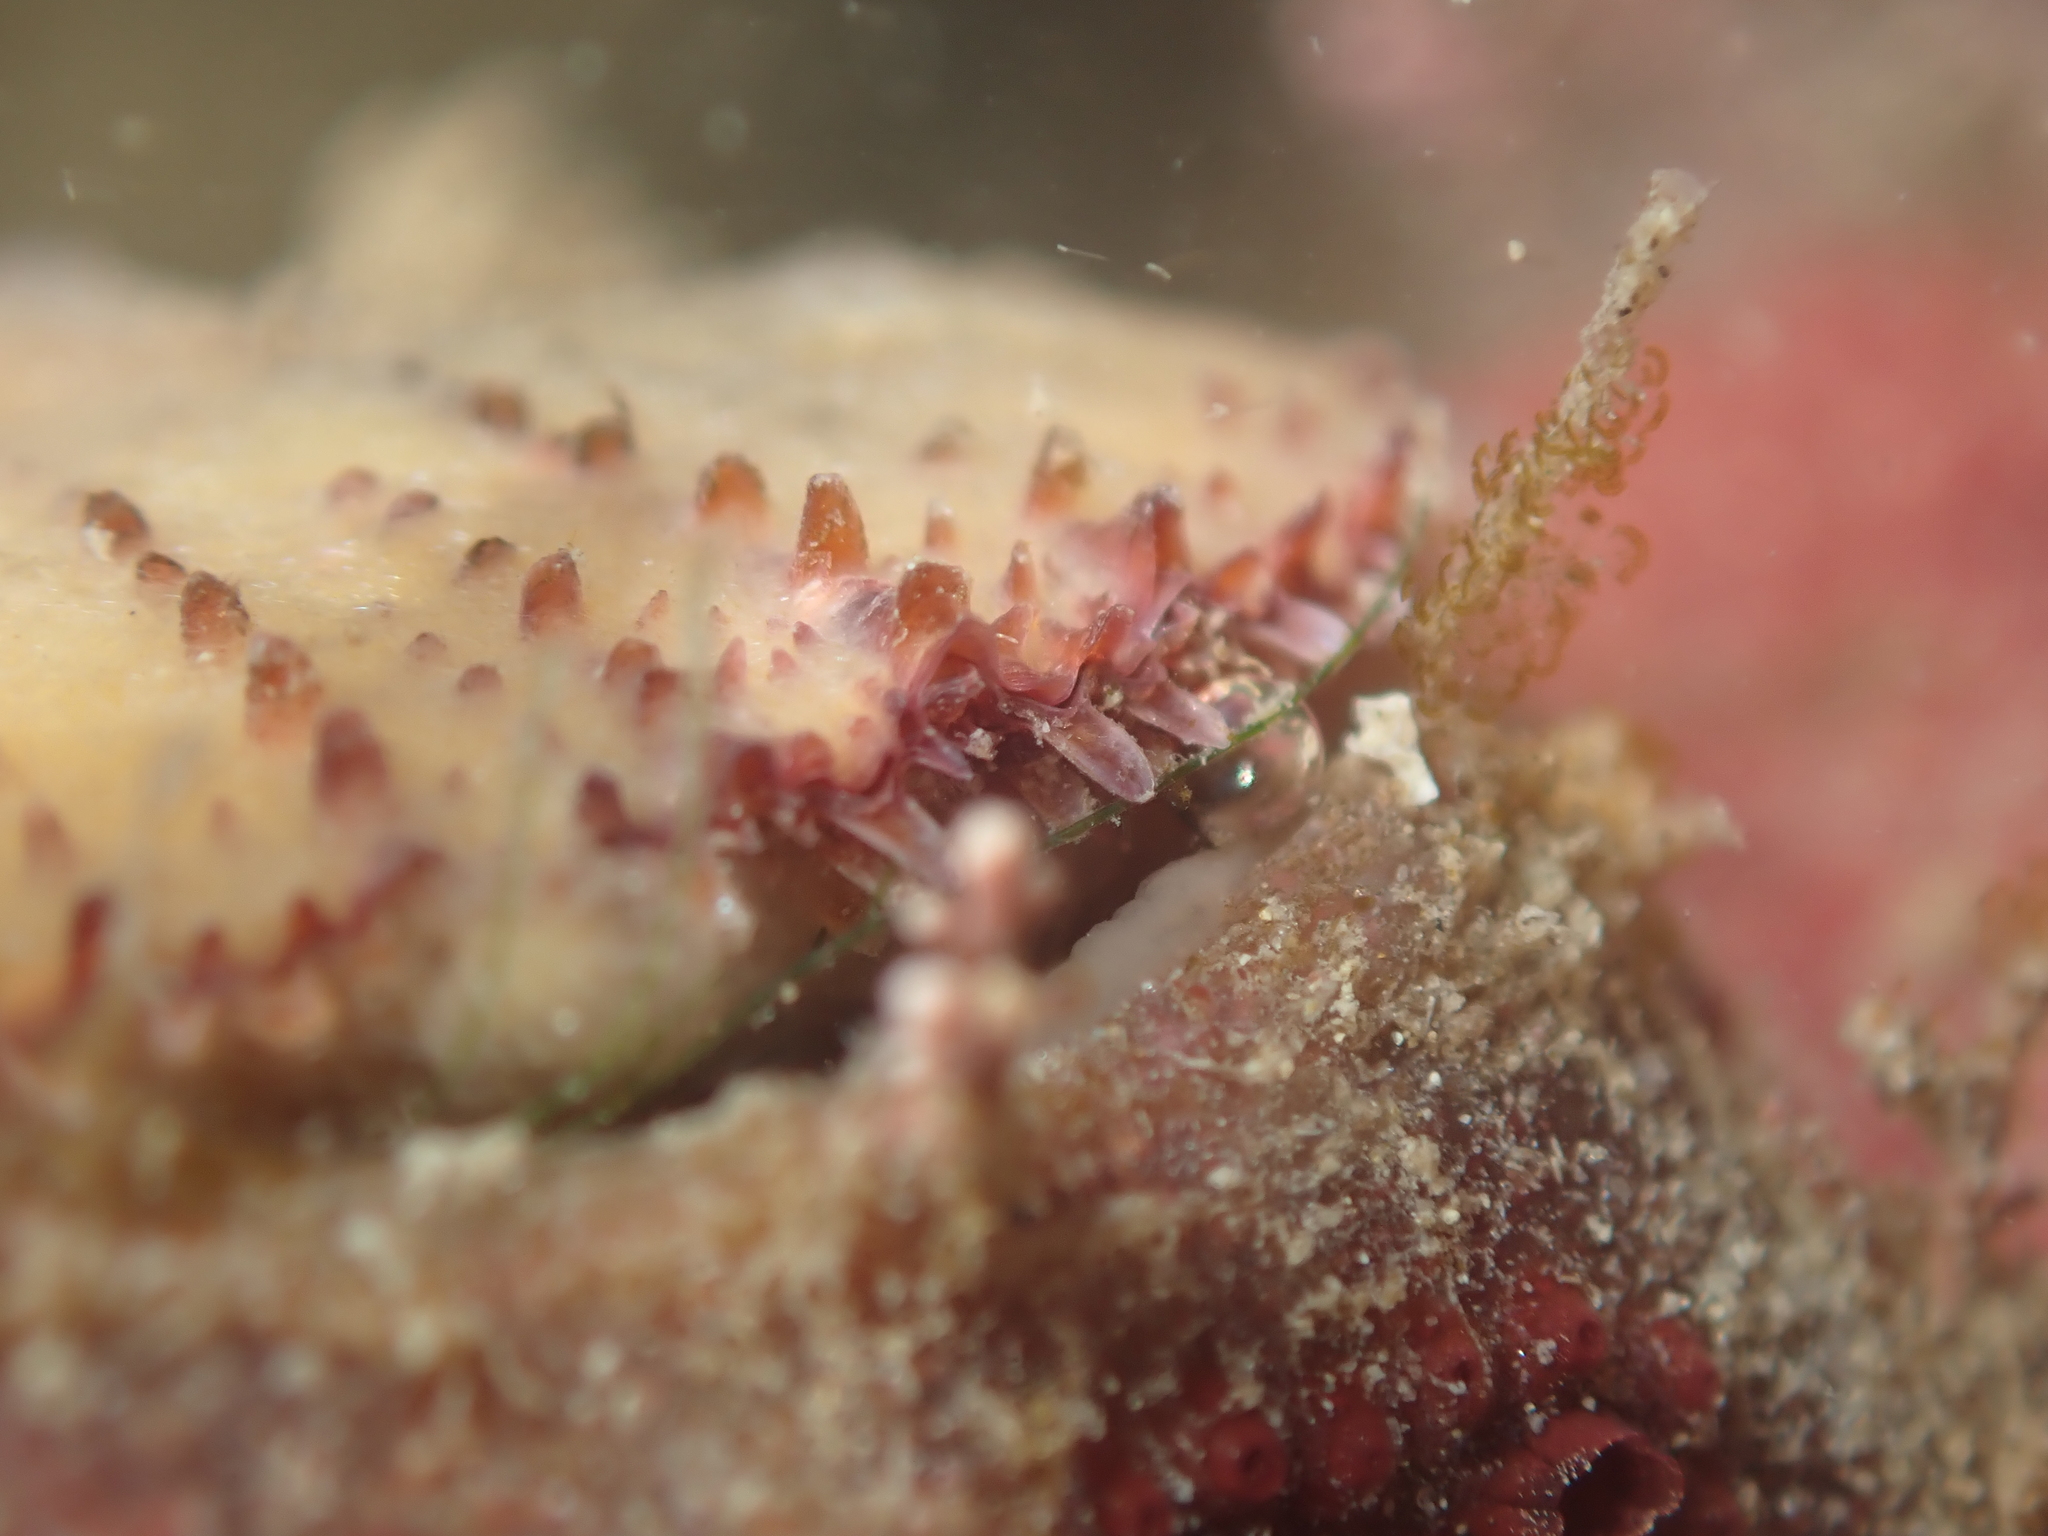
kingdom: Animalia
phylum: Mollusca
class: Bivalvia
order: Pectinida
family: Pectinidae
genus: Talochlamys
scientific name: Talochlamys zelandiae
